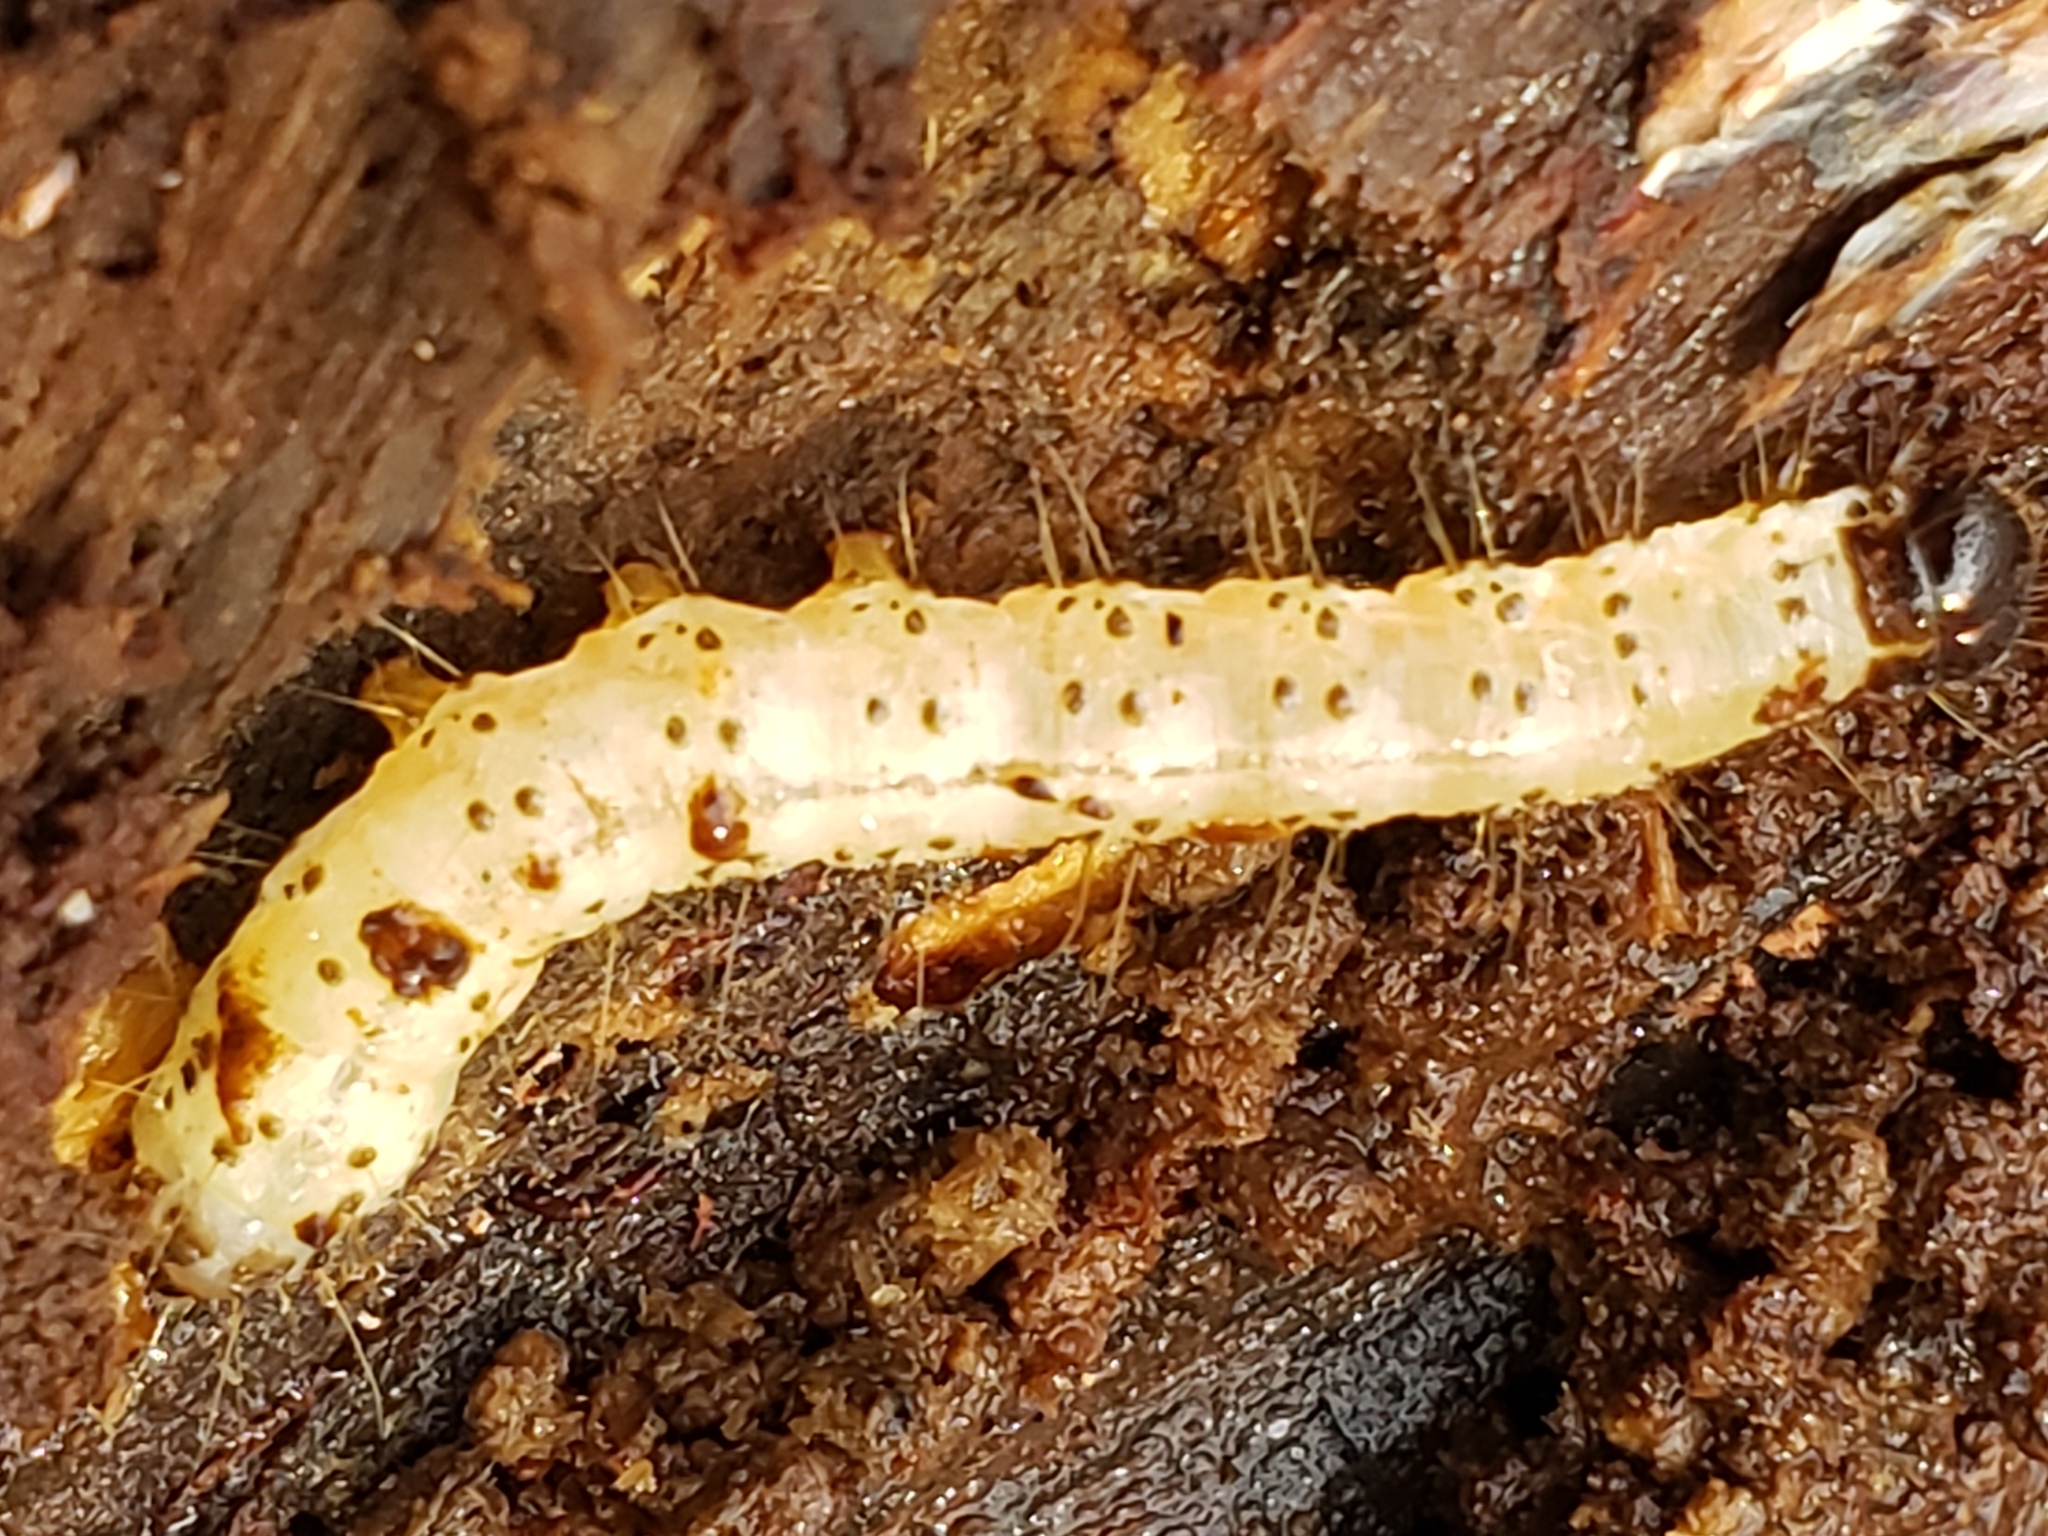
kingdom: Animalia
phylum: Arthropoda
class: Insecta
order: Lepidoptera
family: Erebidae
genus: Scolecocampa
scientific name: Scolecocampa liburna
